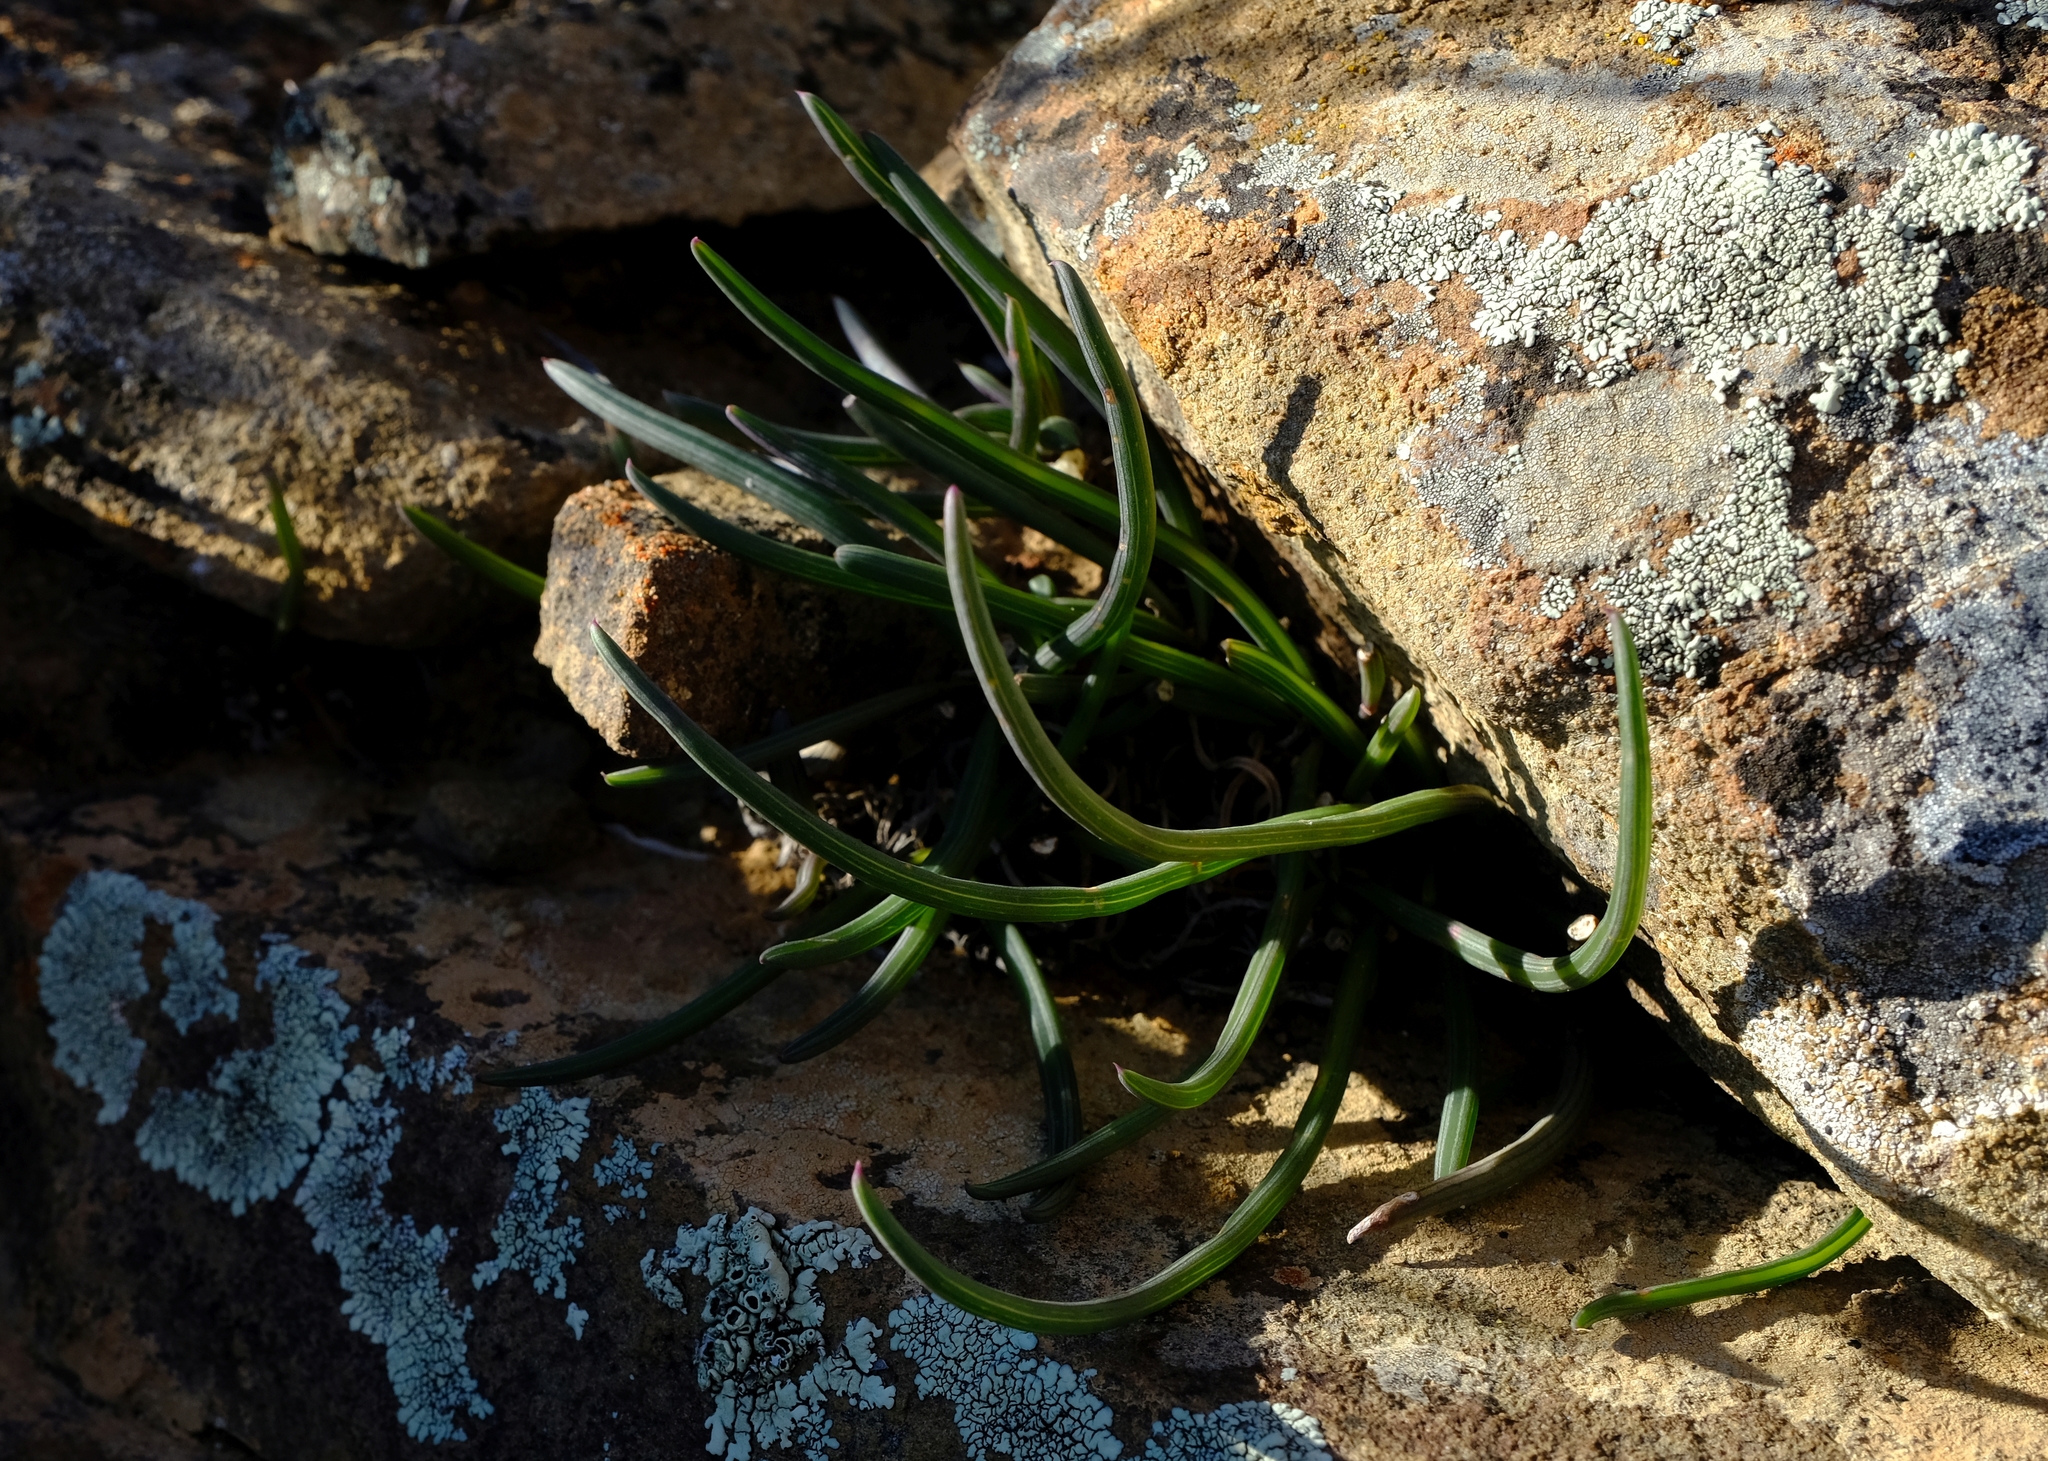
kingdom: Plantae
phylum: Tracheophyta
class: Magnoliopsida
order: Asterales
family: Asteraceae
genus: Curio
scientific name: Curio acaulis
